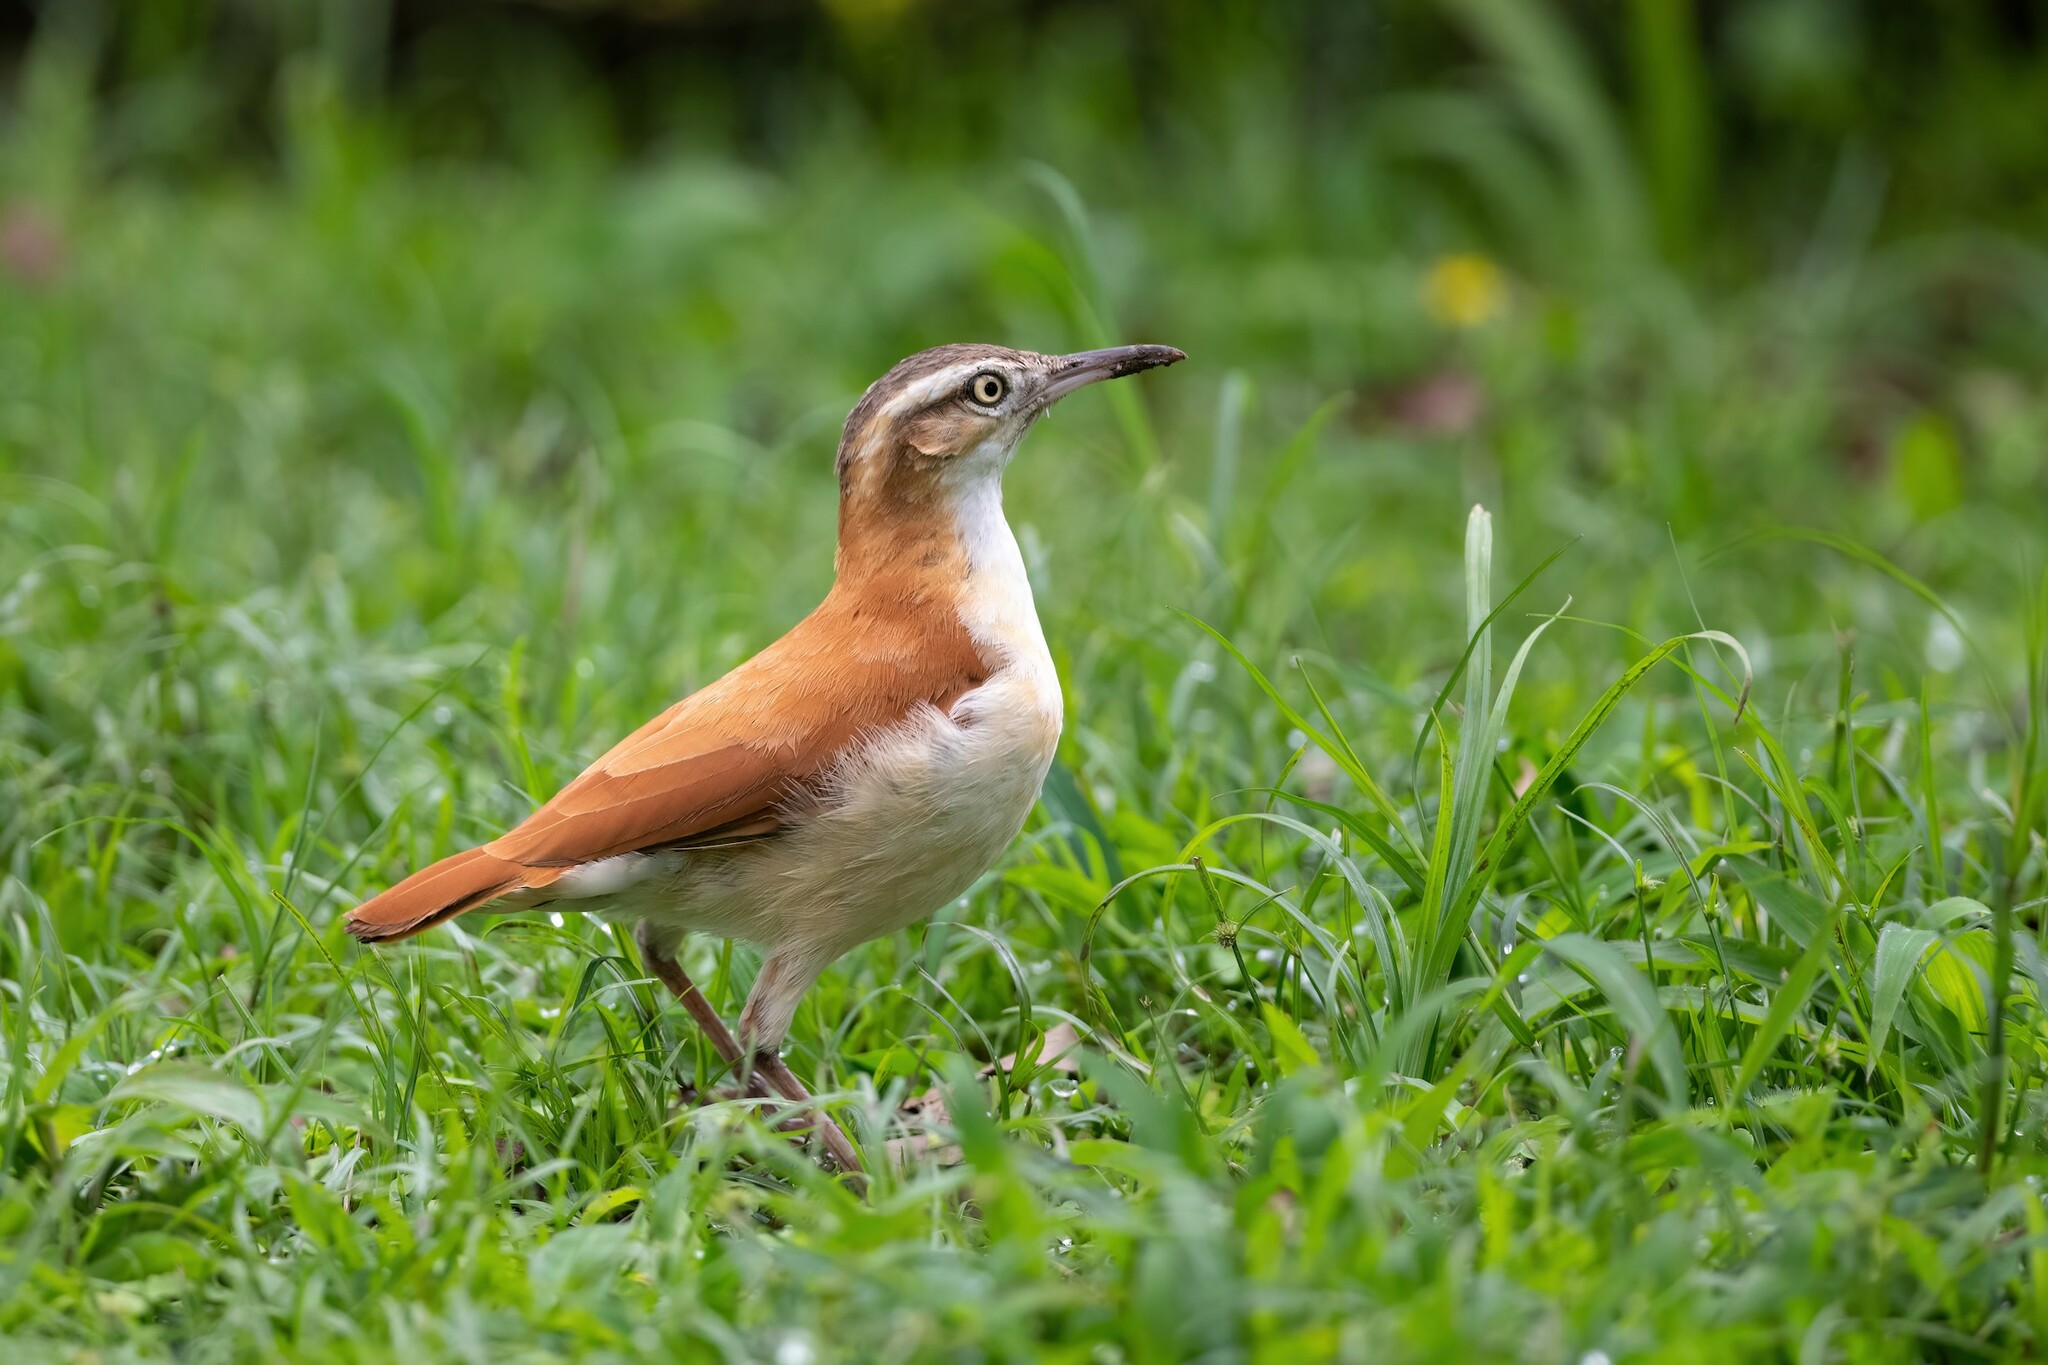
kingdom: Animalia
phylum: Chordata
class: Aves
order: Passeriformes
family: Furnariidae
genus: Furnarius
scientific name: Furnarius leucopus
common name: Pale-legged hornero
